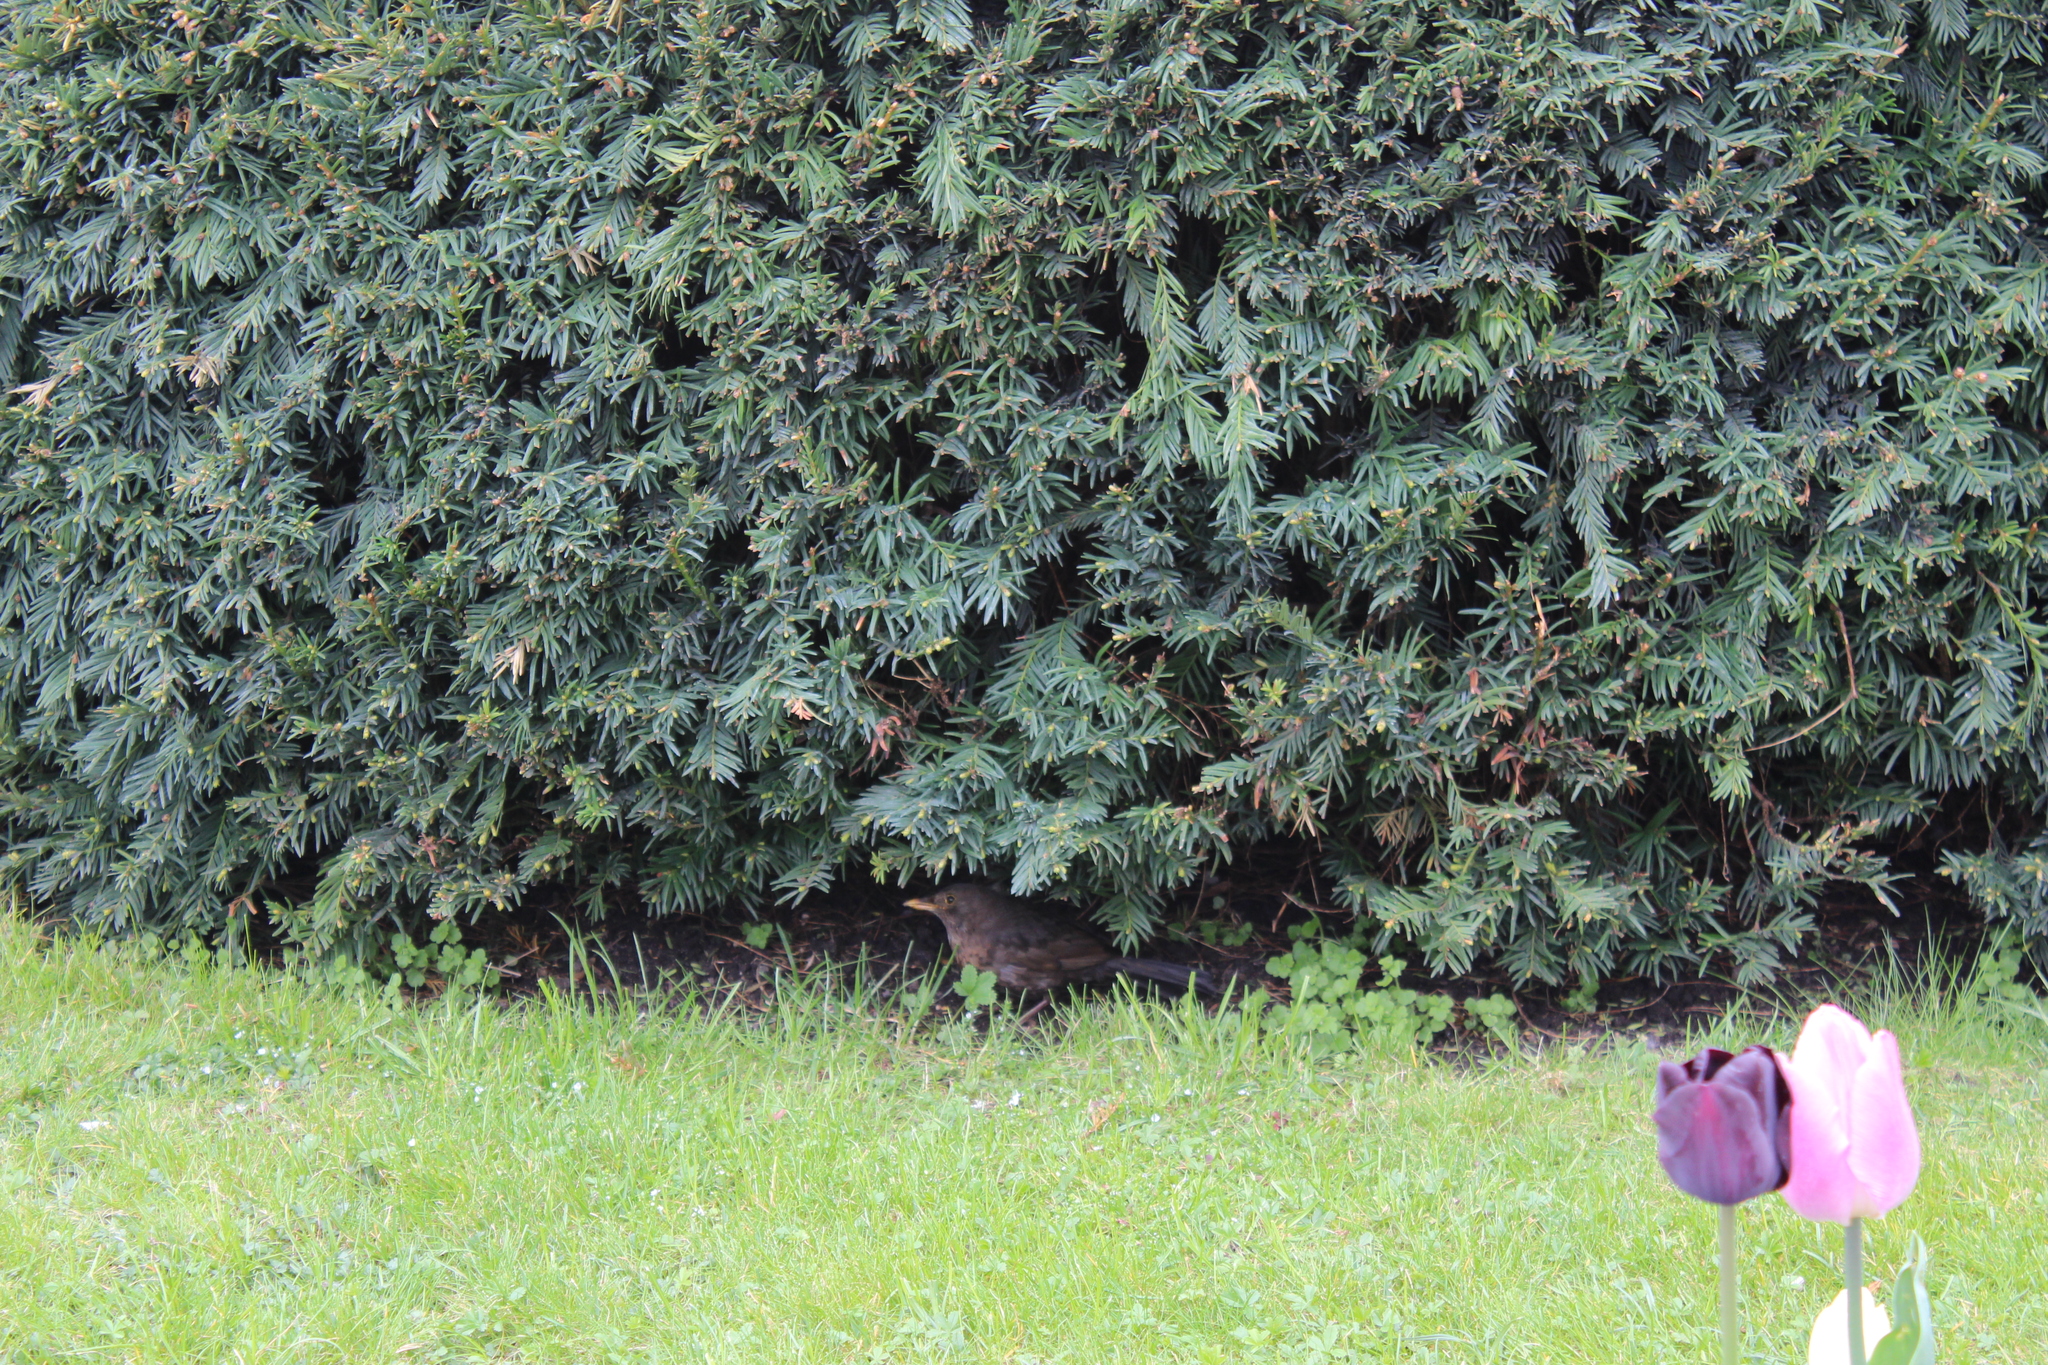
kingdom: Animalia
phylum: Chordata
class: Aves
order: Passeriformes
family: Turdidae
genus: Turdus
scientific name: Turdus merula
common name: Common blackbird
